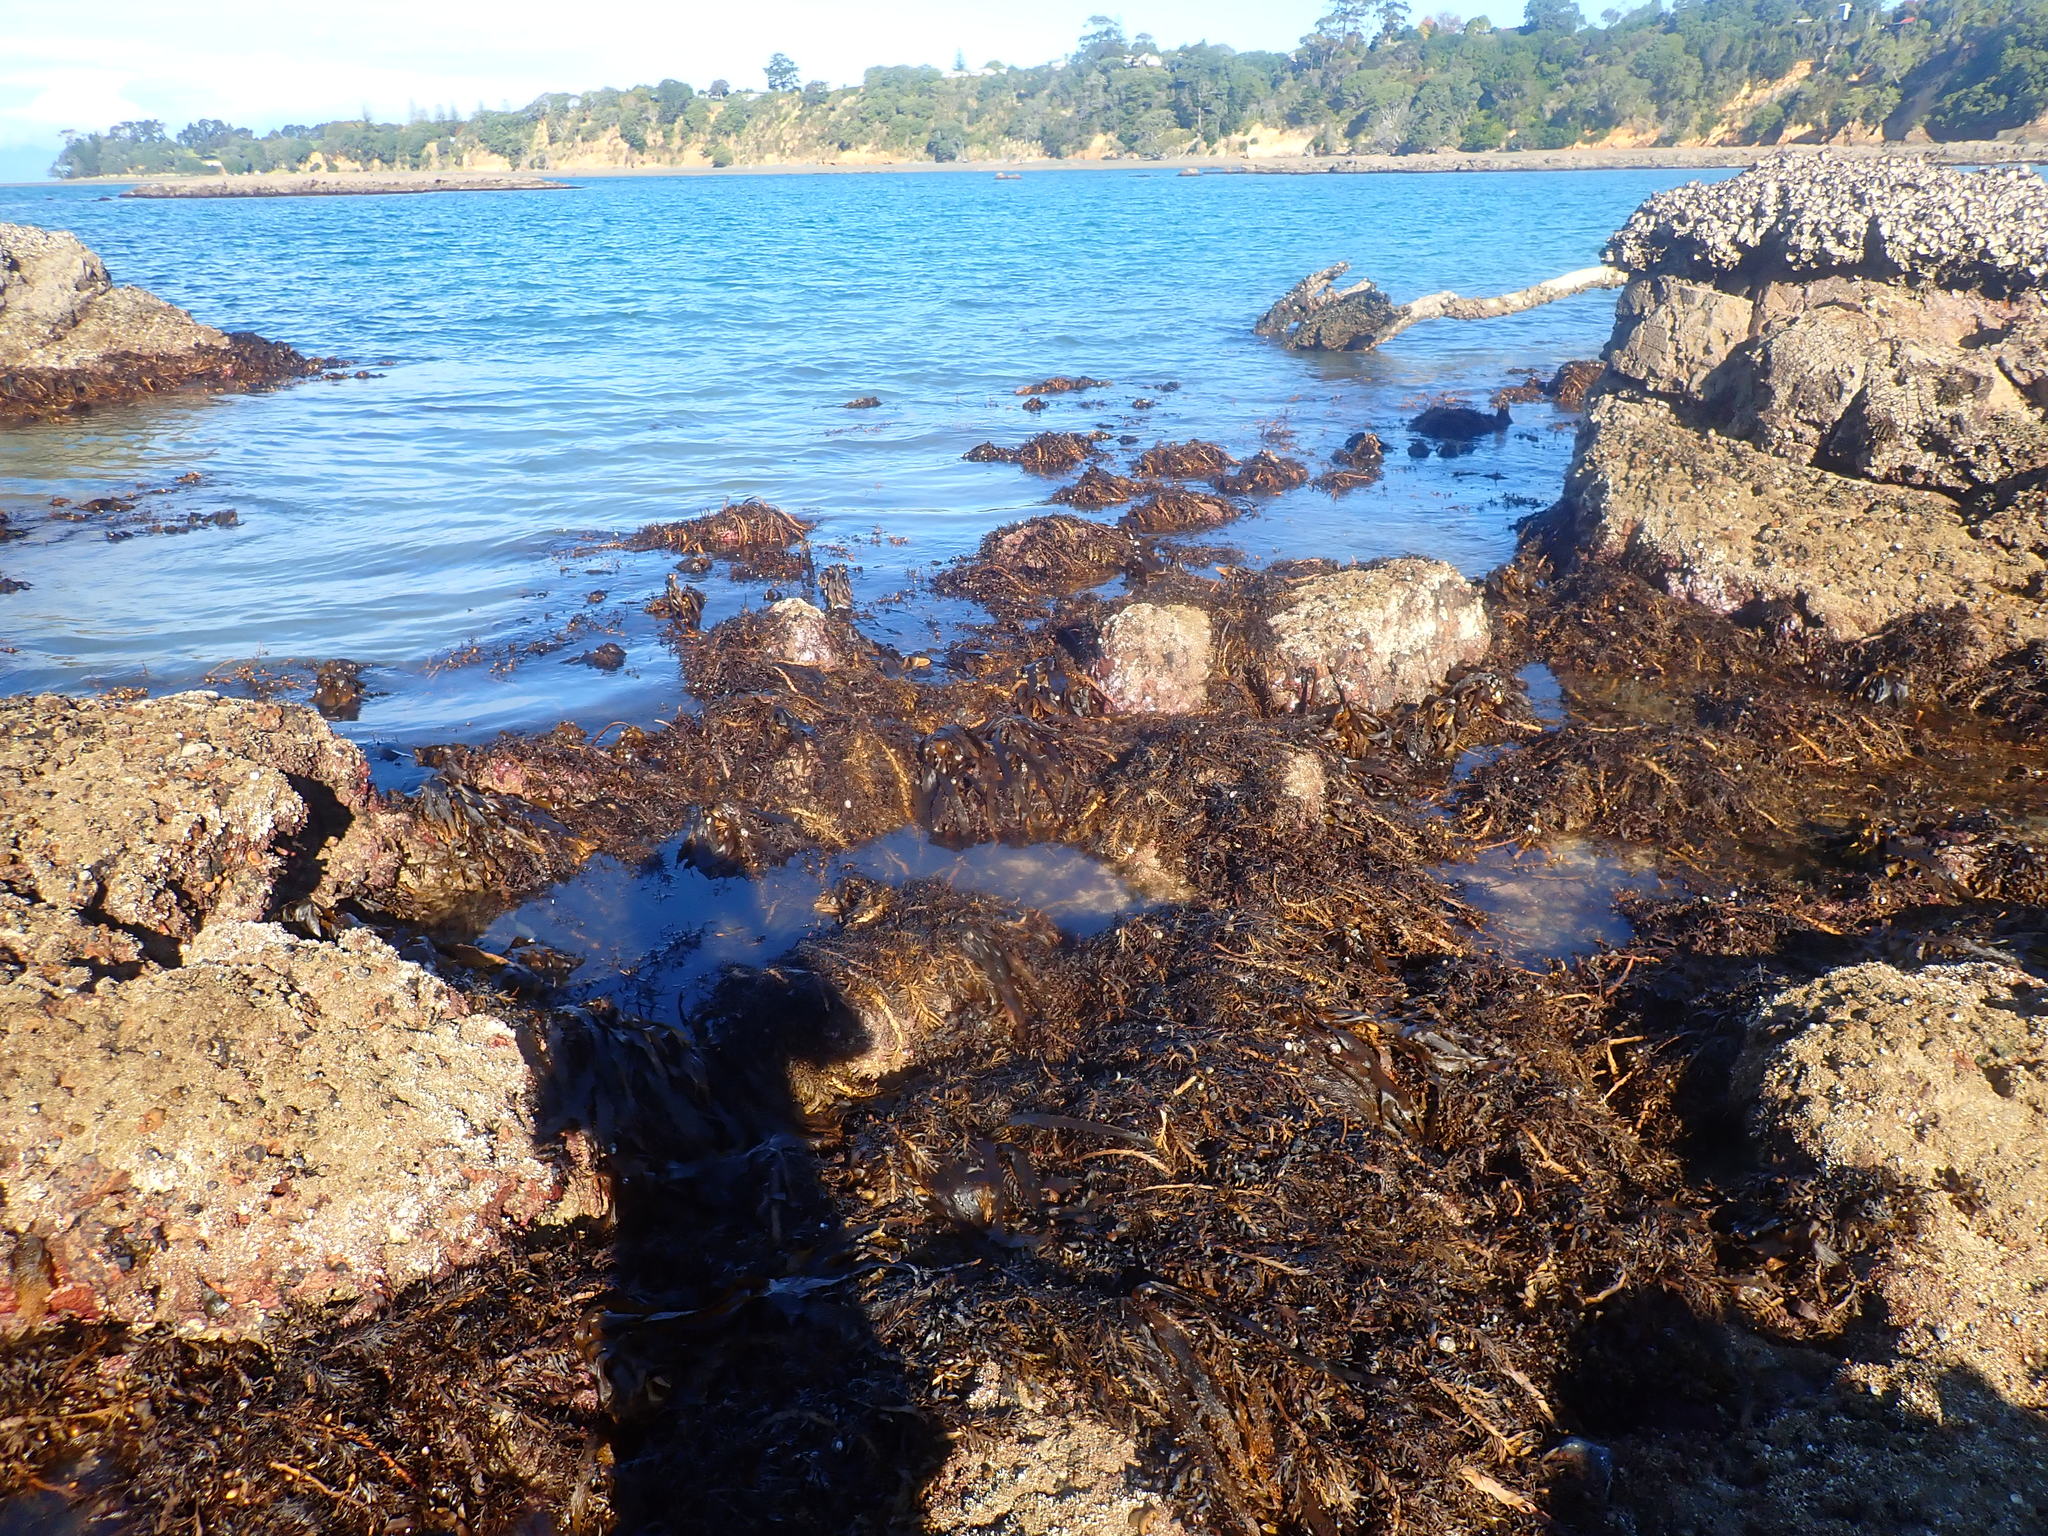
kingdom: Chromista
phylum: Ochrophyta
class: Phaeophyceae
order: Fucales
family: Sargassaceae
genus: Carpophyllum
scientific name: Carpophyllum maschalocarpum
